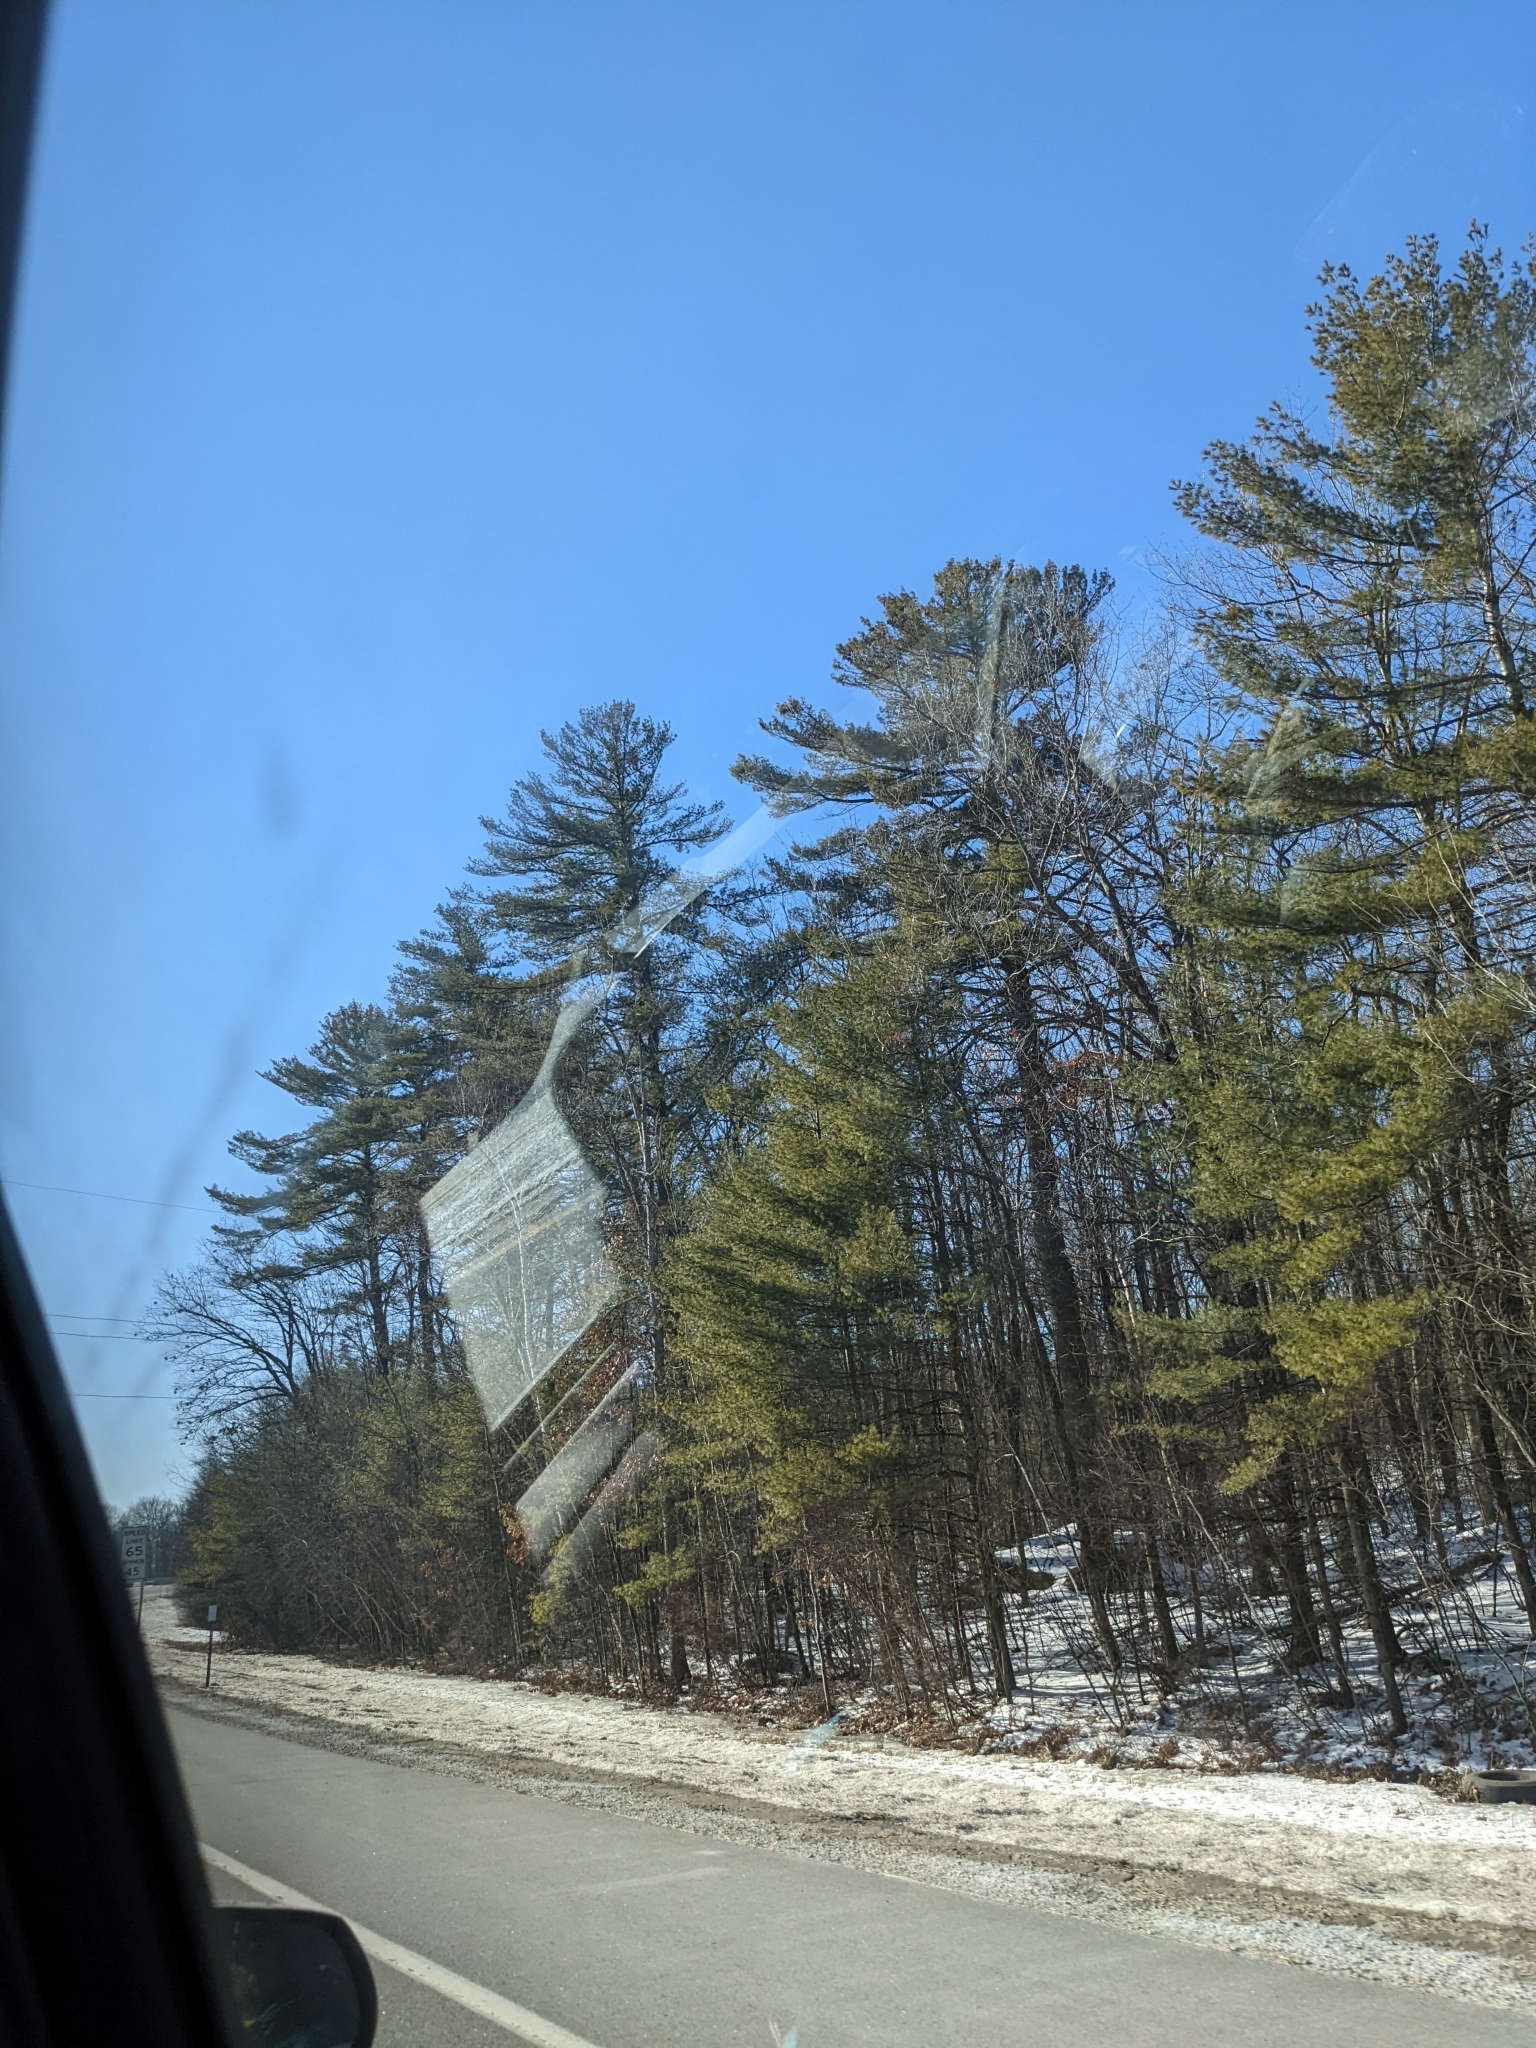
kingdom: Plantae
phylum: Tracheophyta
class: Pinopsida
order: Pinales
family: Pinaceae
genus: Pinus
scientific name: Pinus strobus
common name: Weymouth pine
